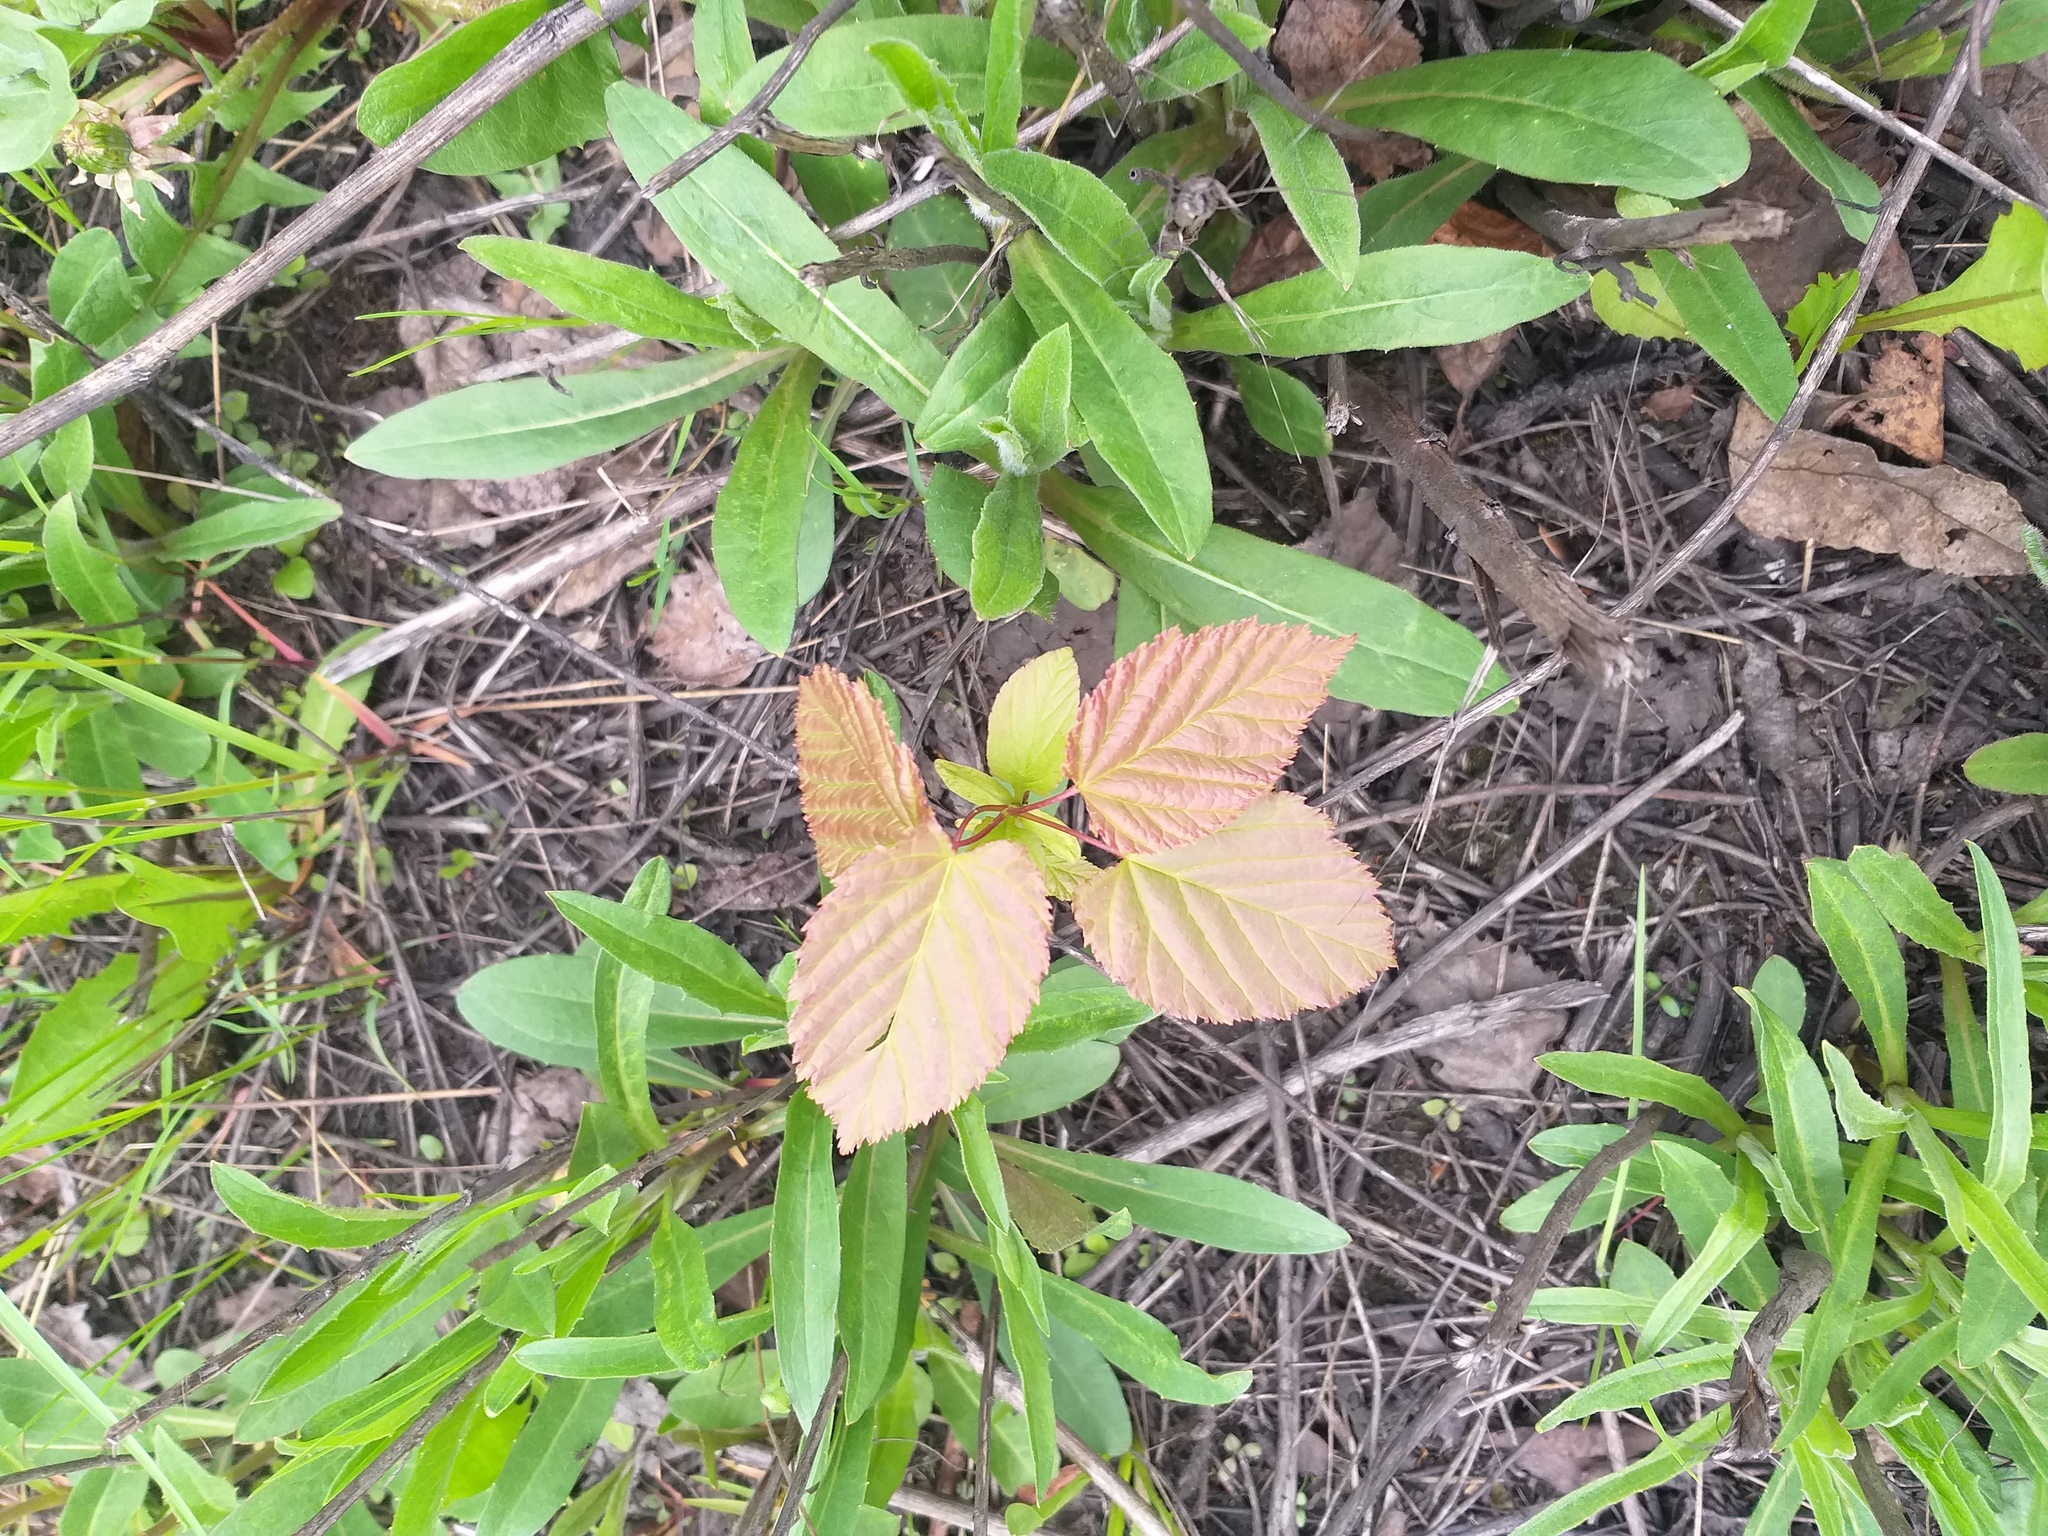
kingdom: Plantae
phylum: Tracheophyta
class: Magnoliopsida
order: Sapindales
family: Sapindaceae
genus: Acer
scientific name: Acer tataricum
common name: Tartar maple
